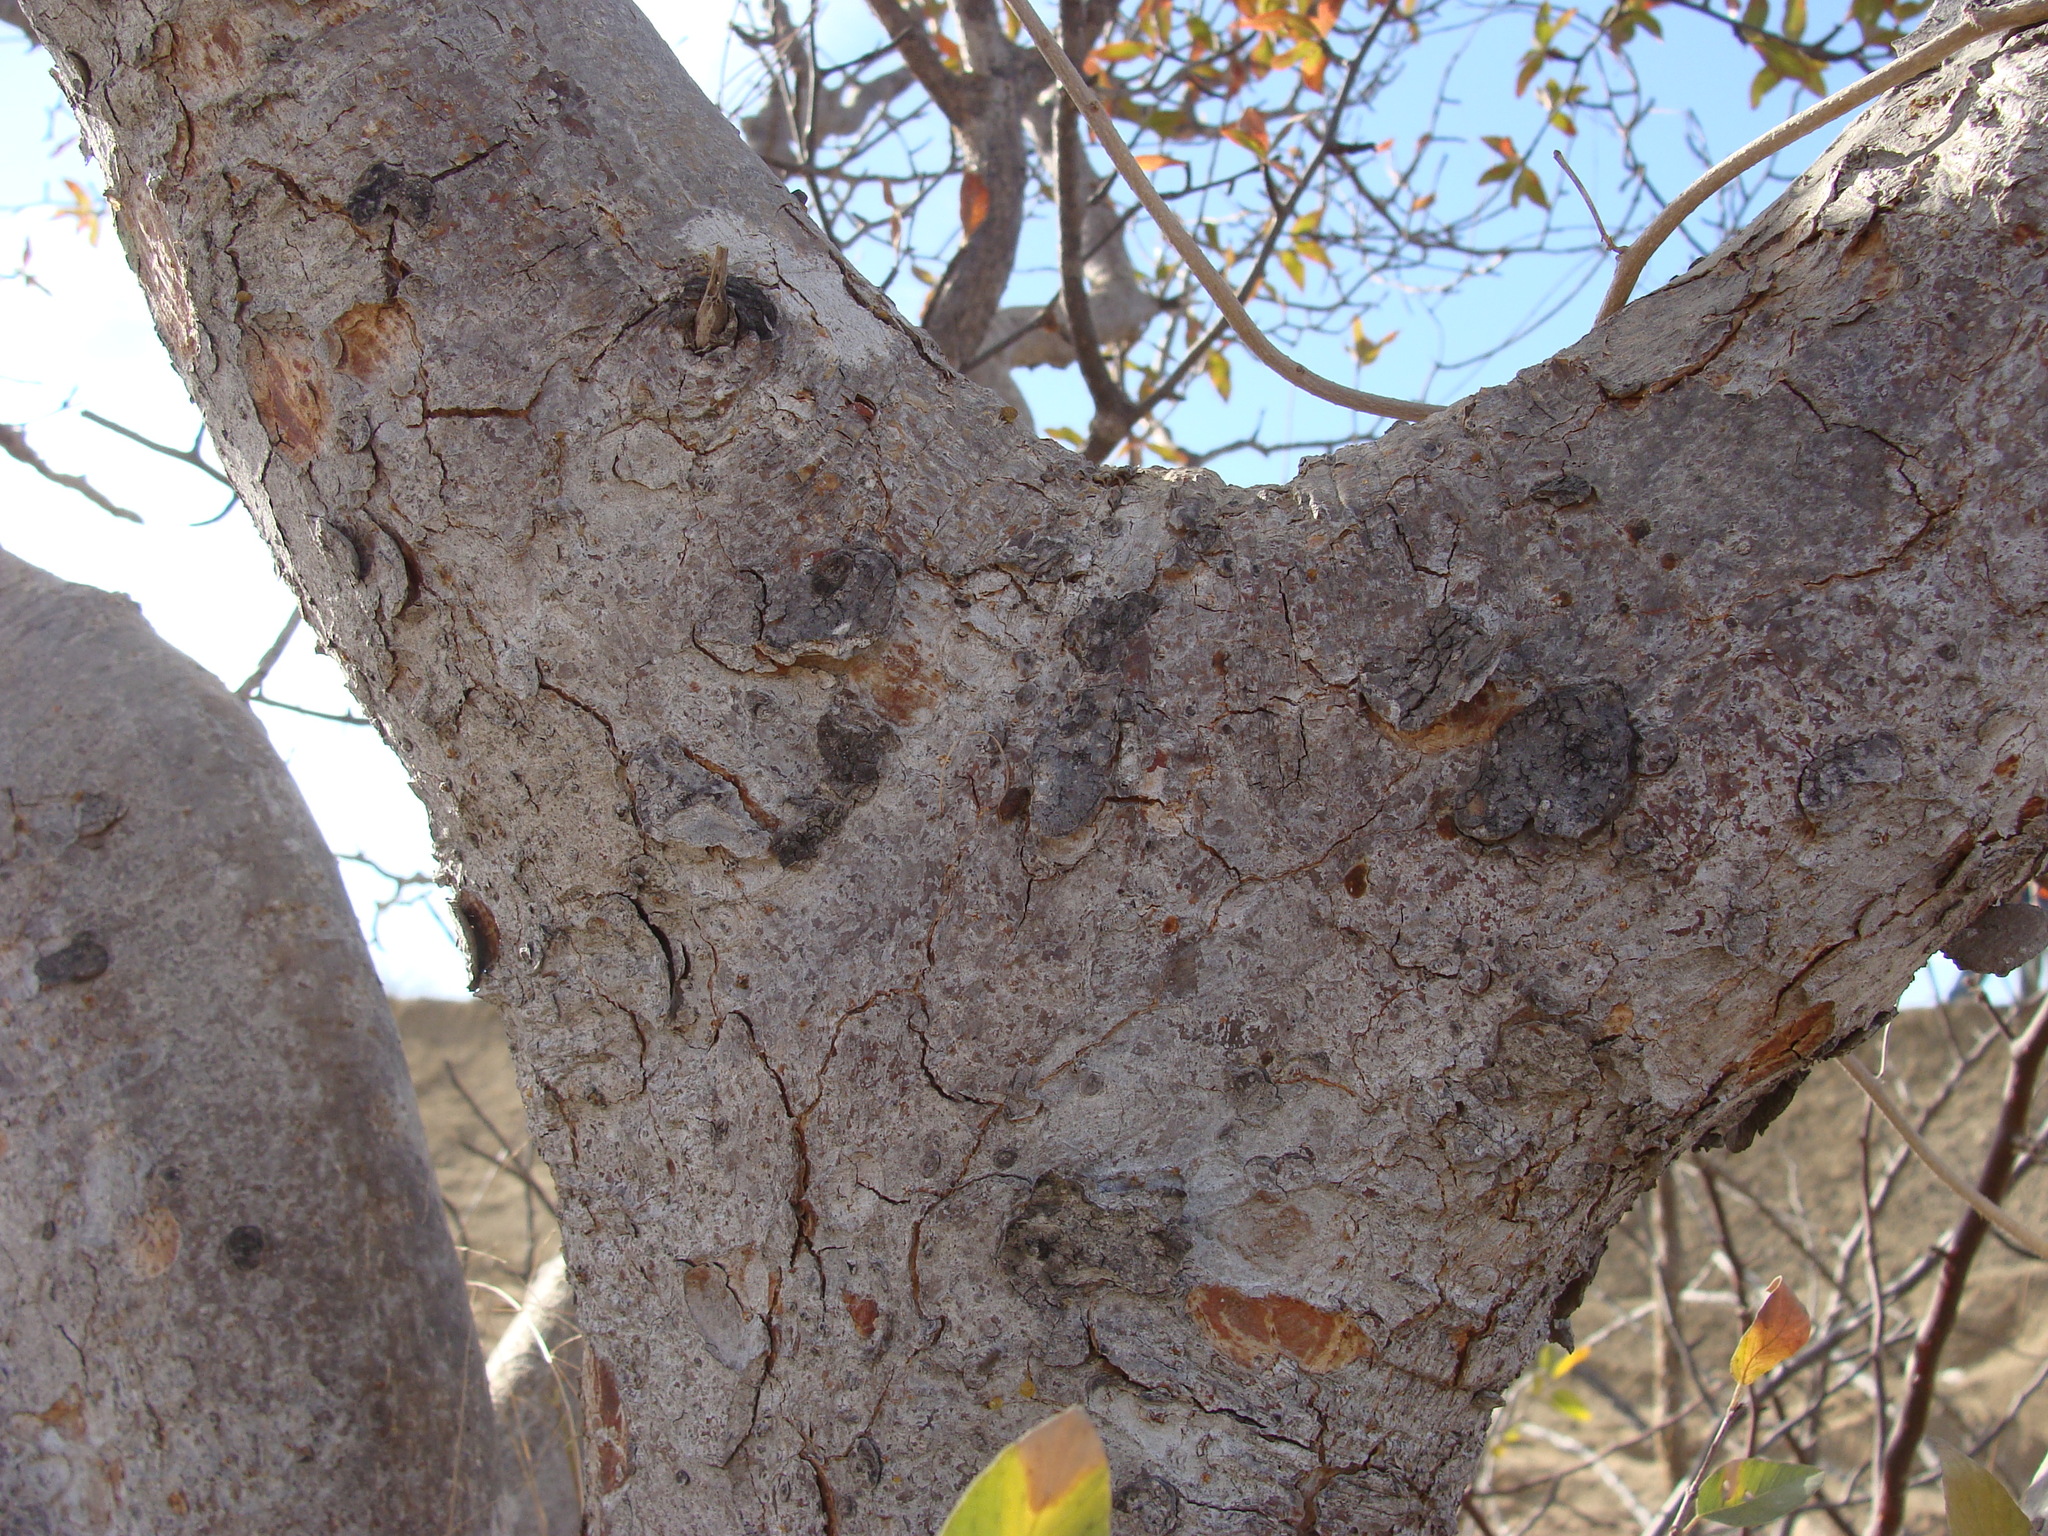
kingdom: Plantae
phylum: Tracheophyta
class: Magnoliopsida
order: Sapindales
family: Burseraceae
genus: Bursera
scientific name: Bursera cerasiifolia
